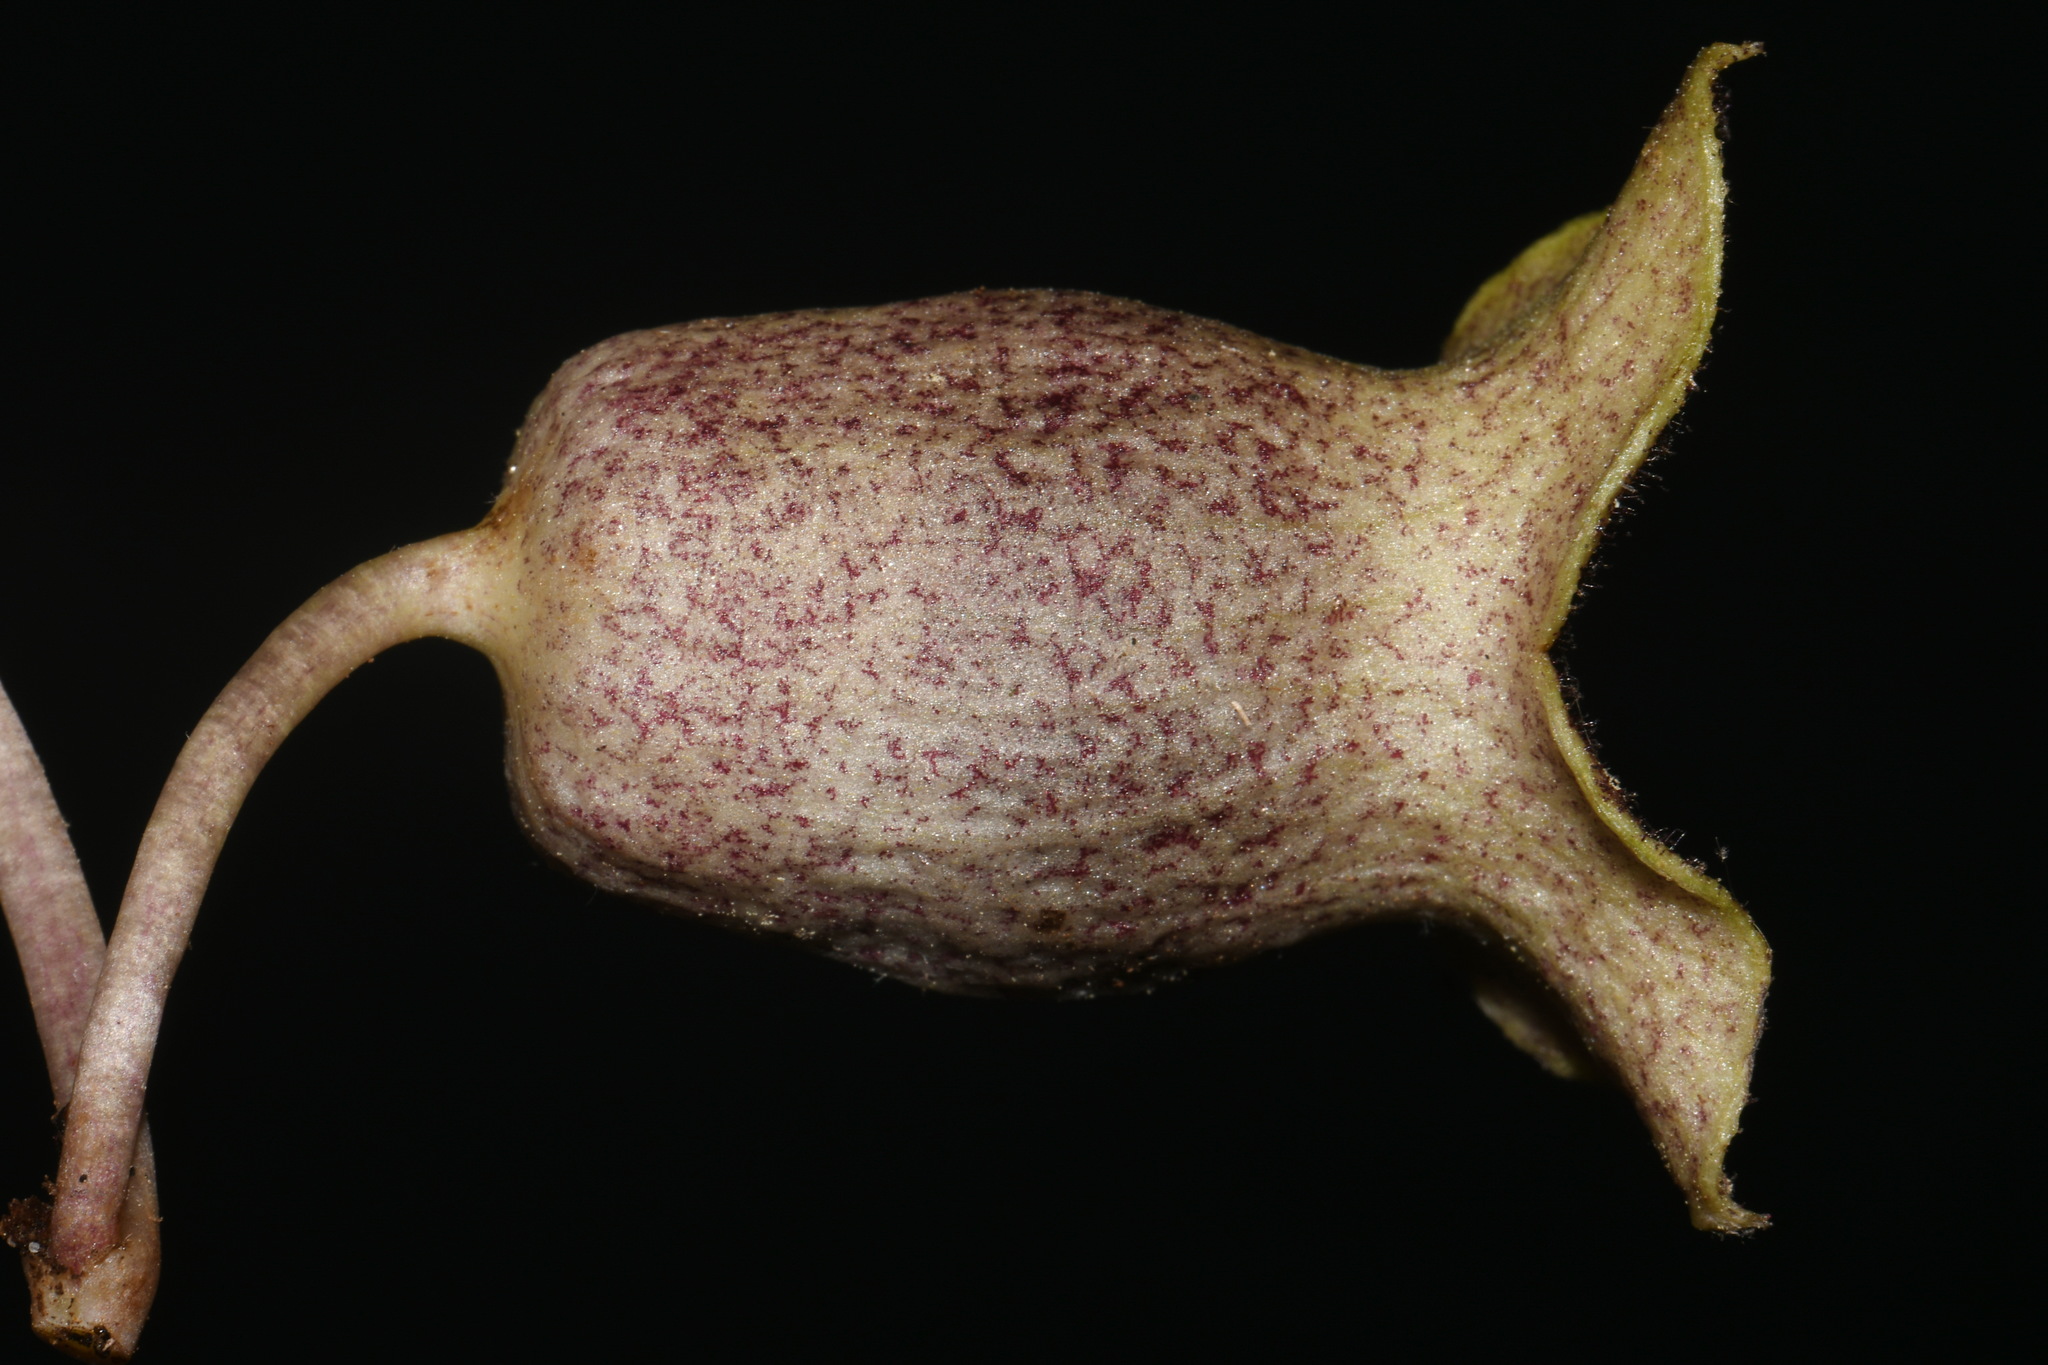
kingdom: Plantae
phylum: Tracheophyta
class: Magnoliopsida
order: Piperales
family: Aristolochiaceae
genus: Hexastylis
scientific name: Hexastylis shuttleworthii
